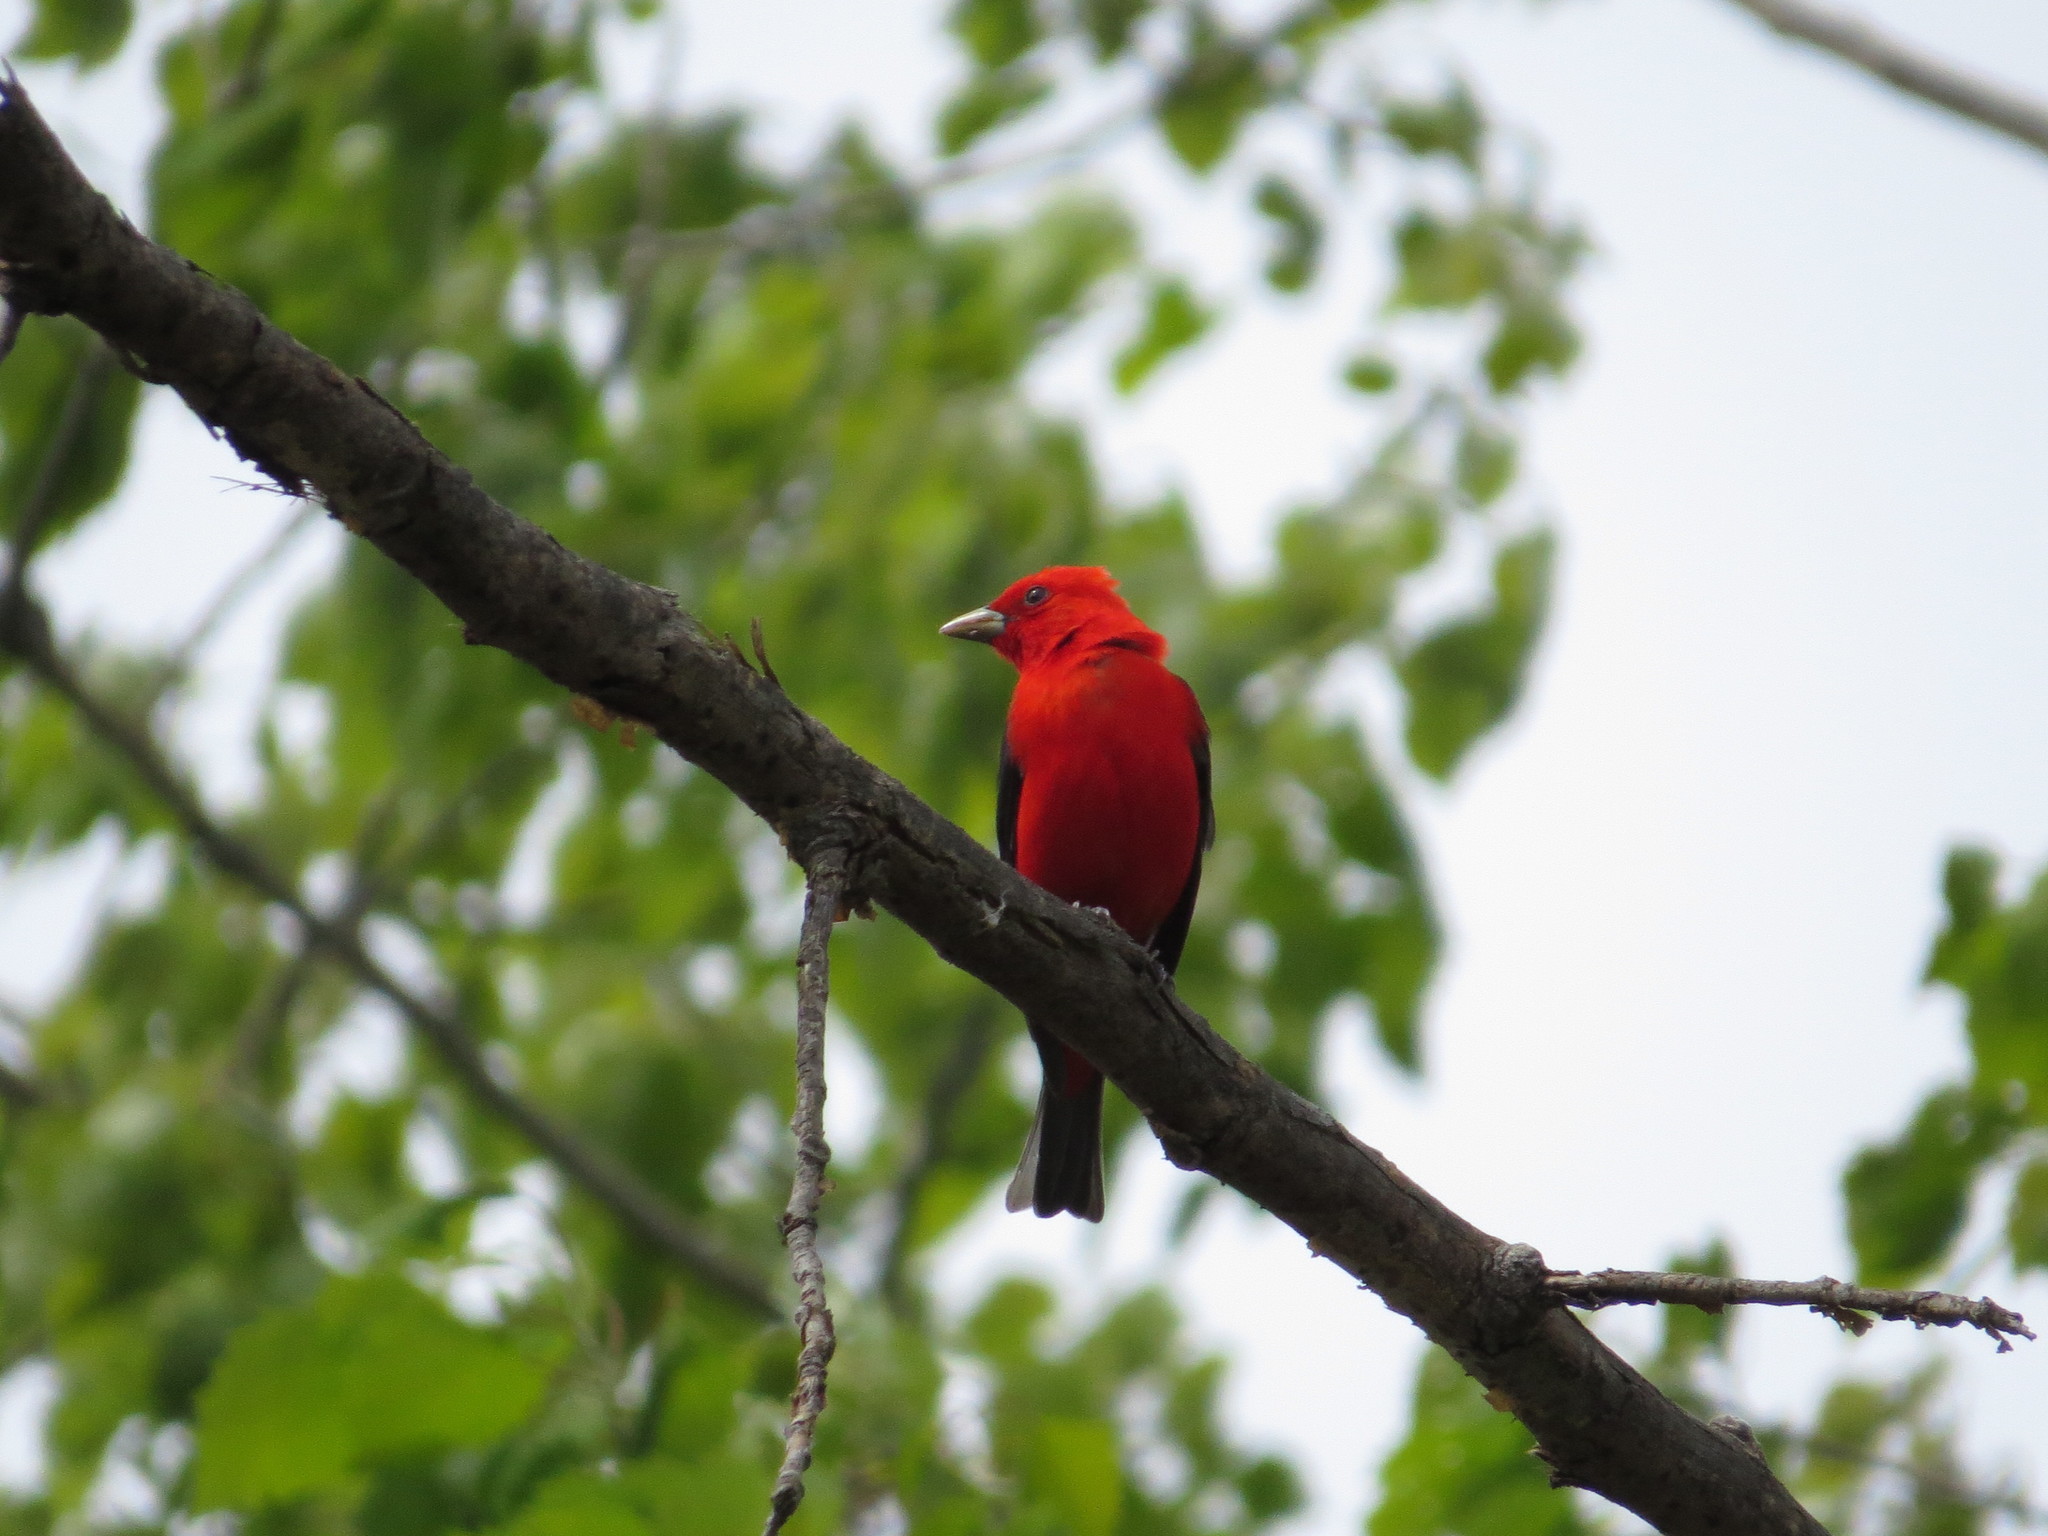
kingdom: Animalia
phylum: Chordata
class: Aves
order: Passeriformes
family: Cardinalidae
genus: Piranga
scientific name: Piranga olivacea
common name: Scarlet tanager
